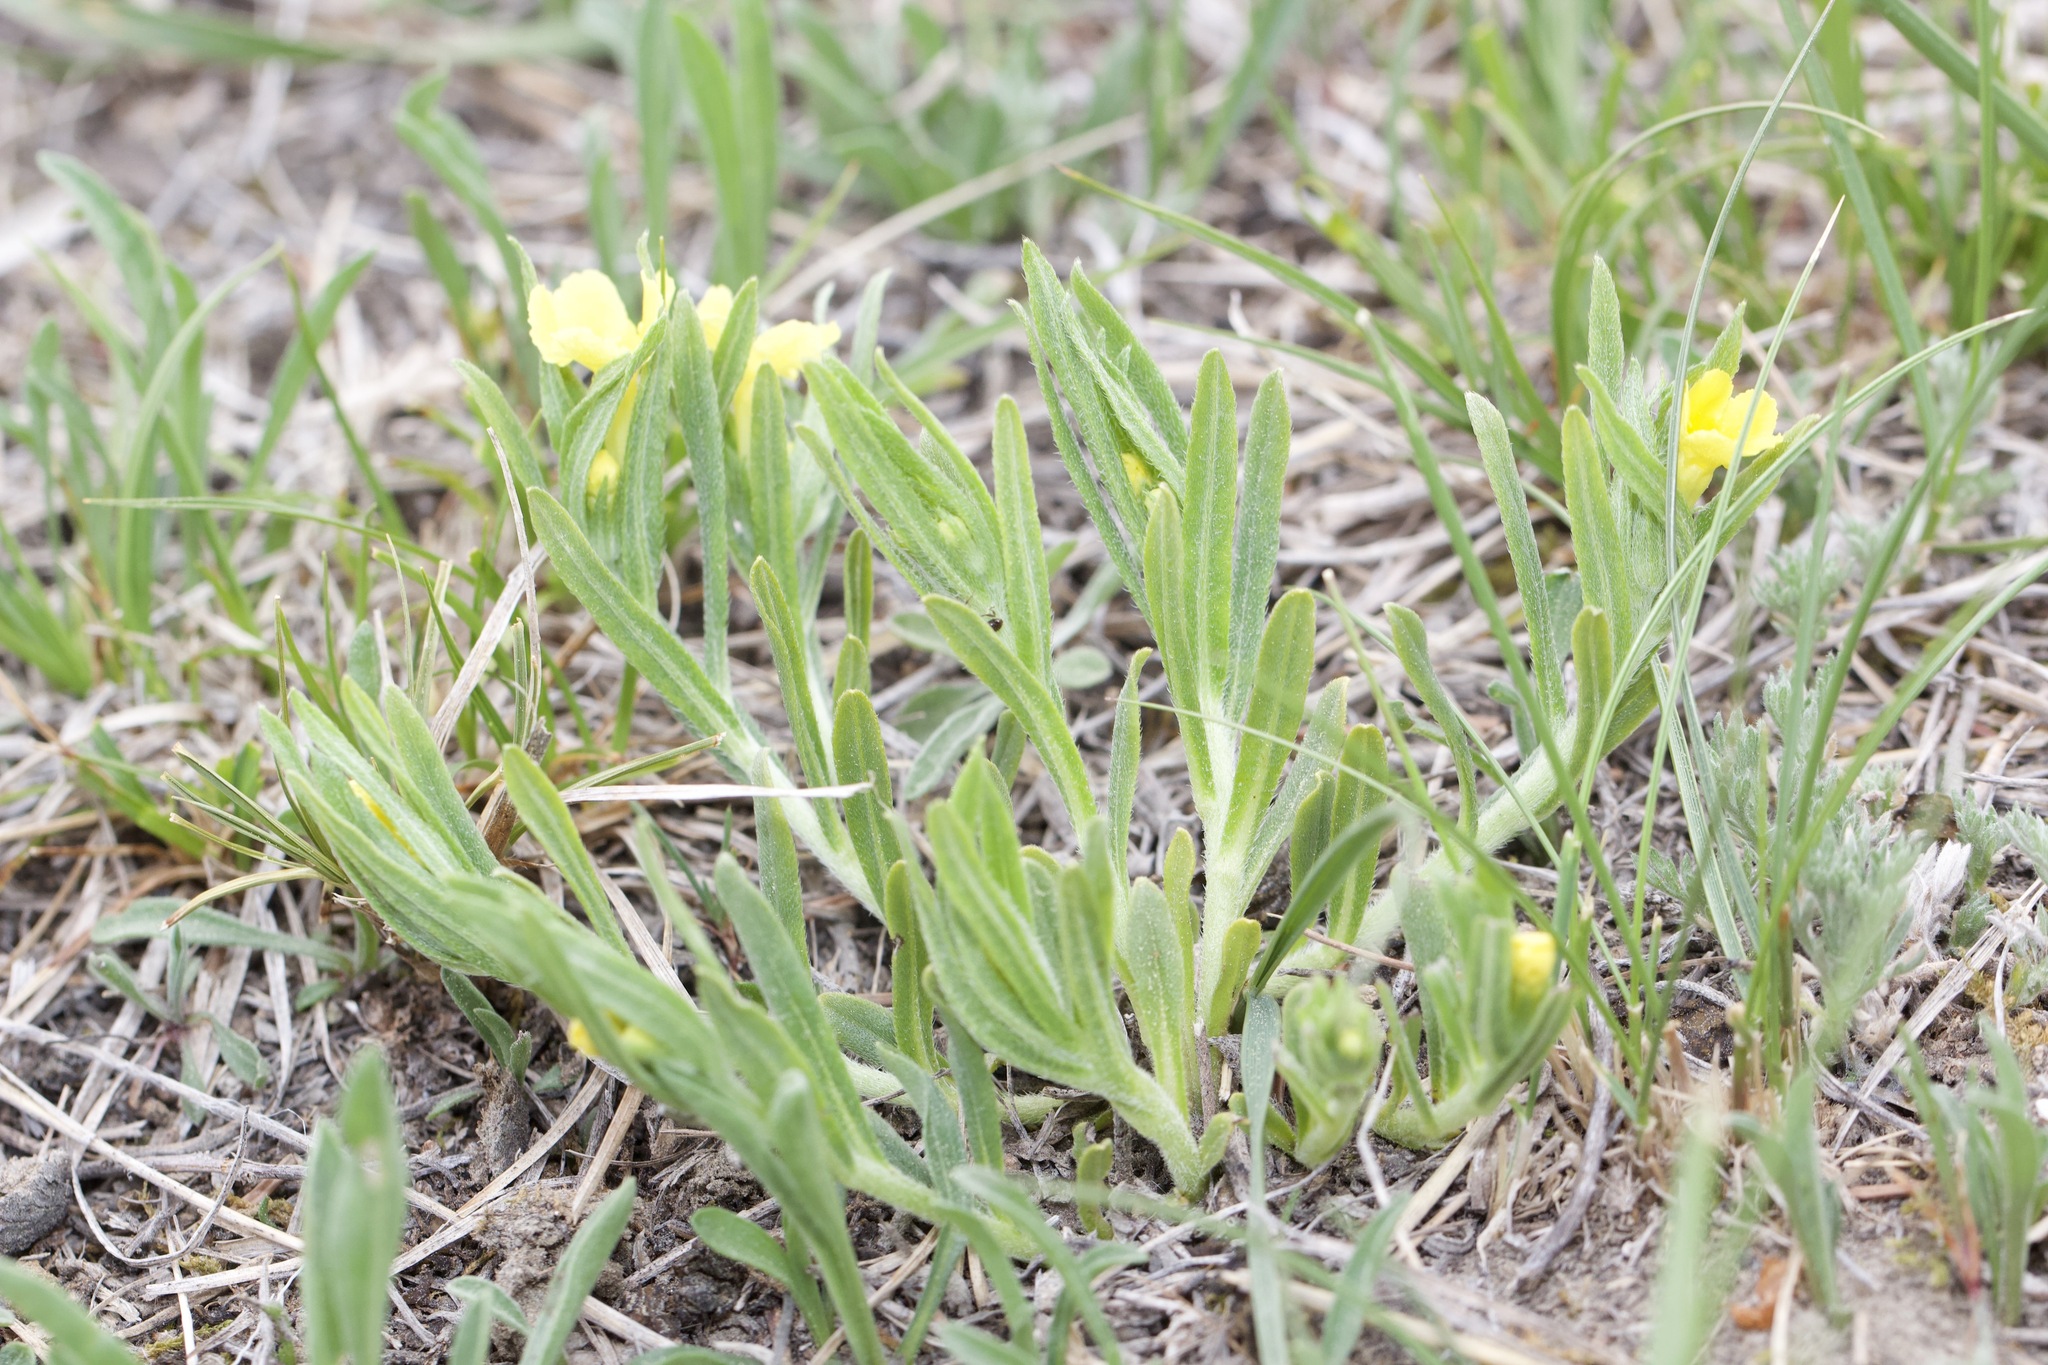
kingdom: Plantae
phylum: Tracheophyta
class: Magnoliopsida
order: Boraginales
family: Boraginaceae
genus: Lithospermum
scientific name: Lithospermum incisum
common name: Fringed gromwell
